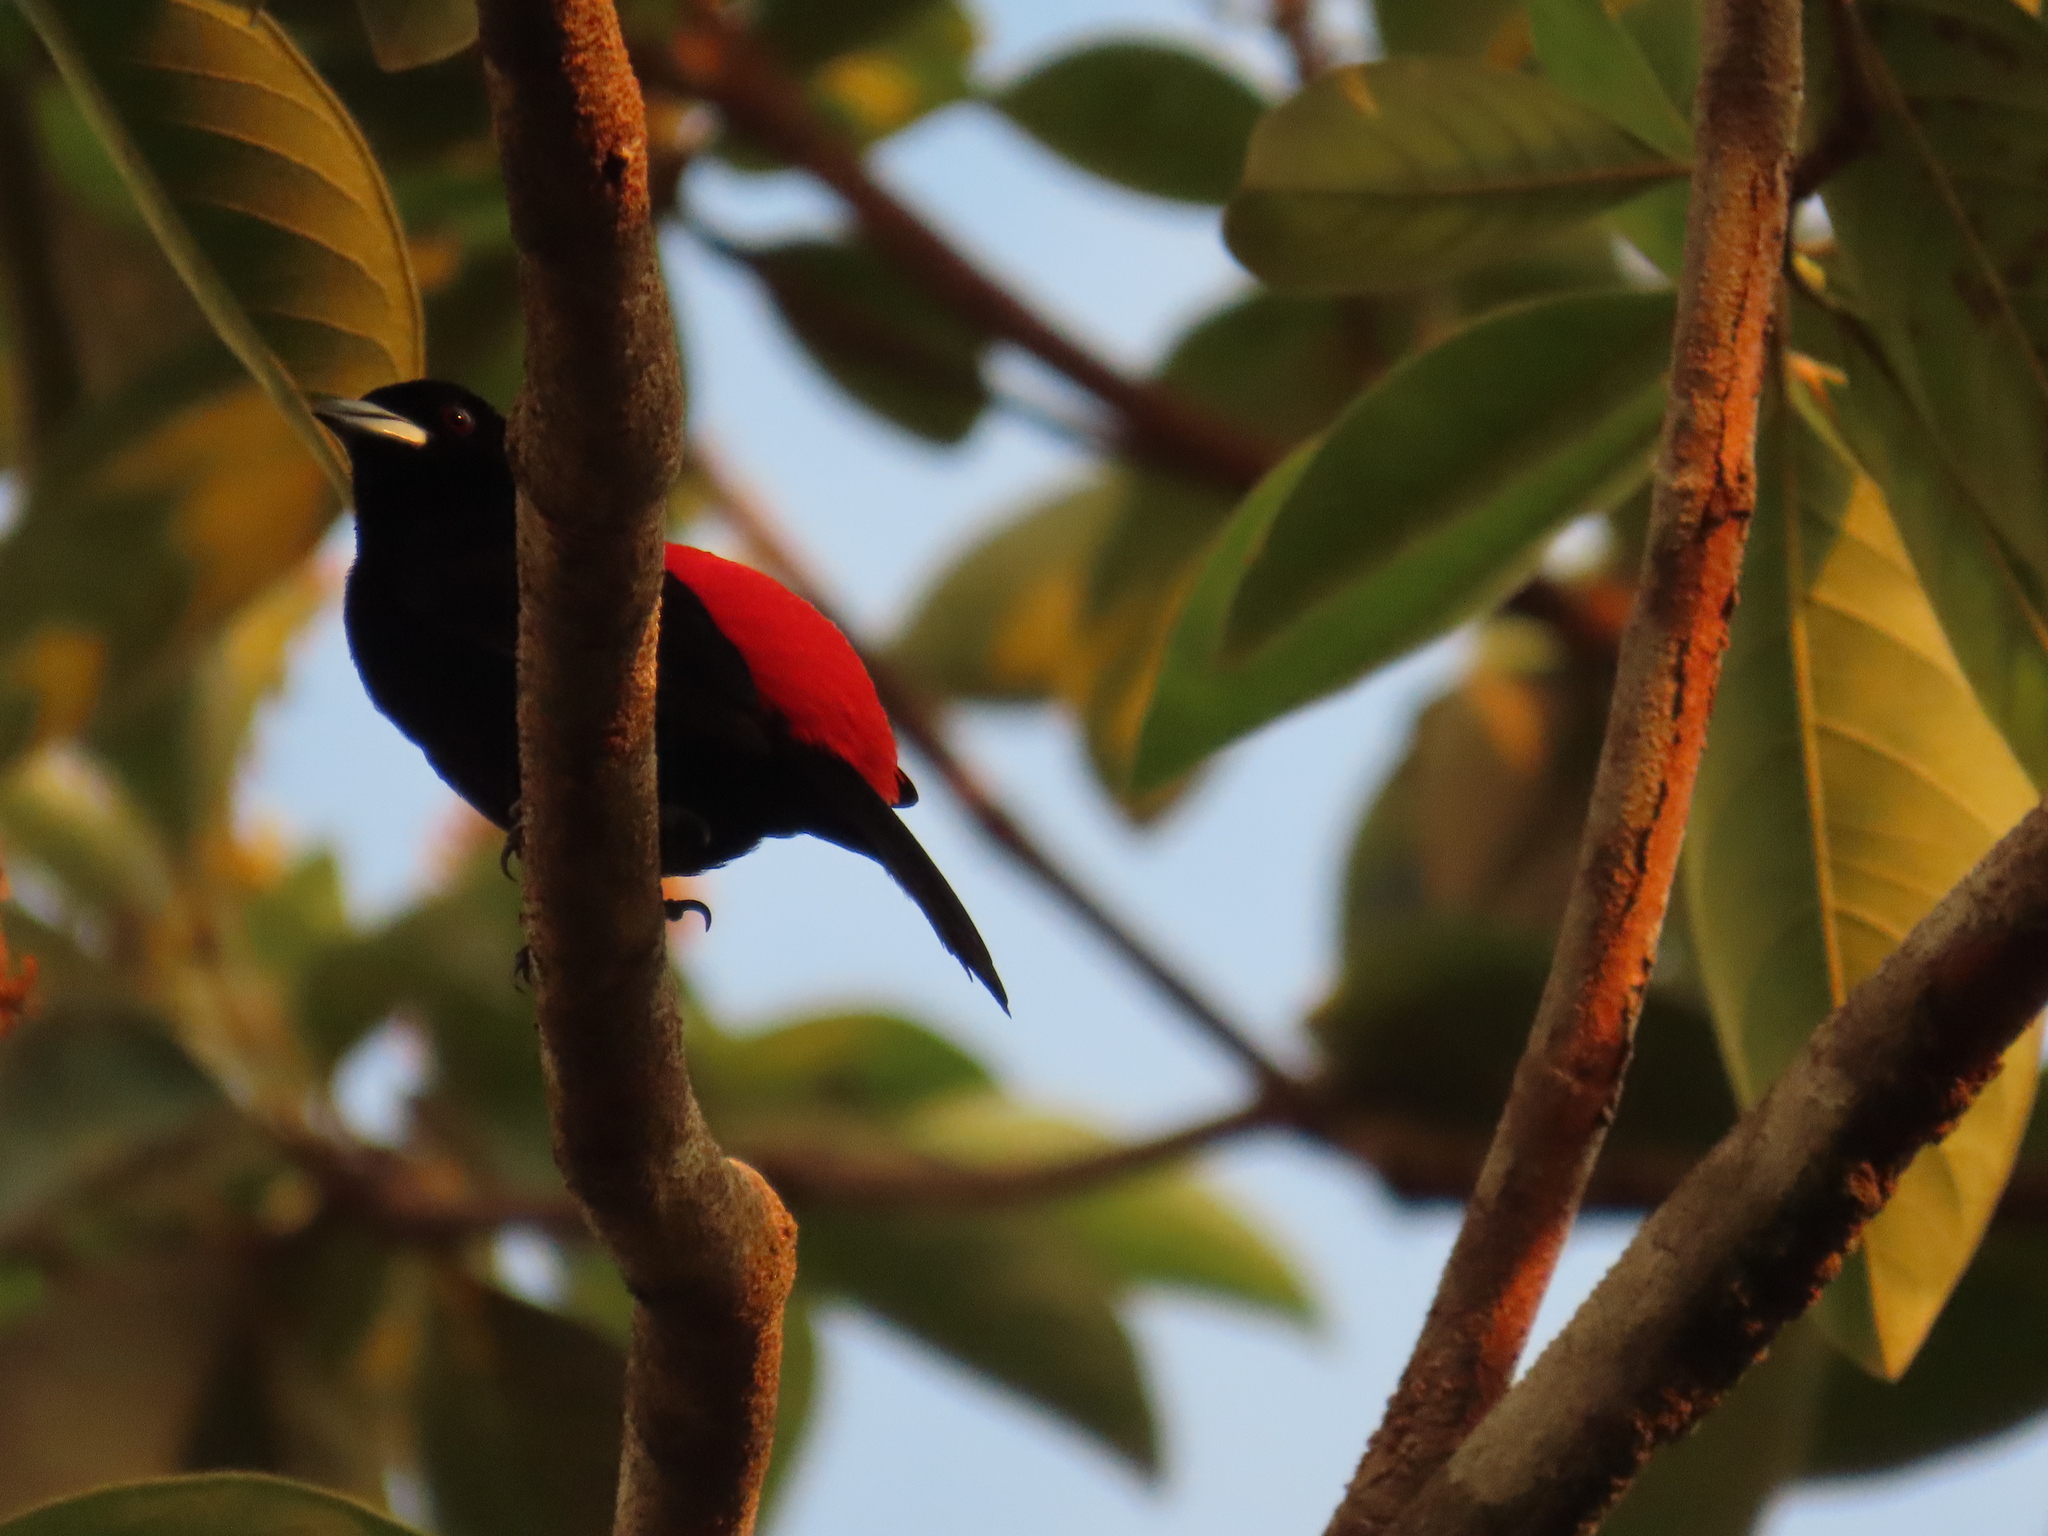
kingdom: Animalia
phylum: Chordata
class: Aves
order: Passeriformes
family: Thraupidae
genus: Ramphocelus
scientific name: Ramphocelus passerinii
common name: Passerini's tanager
